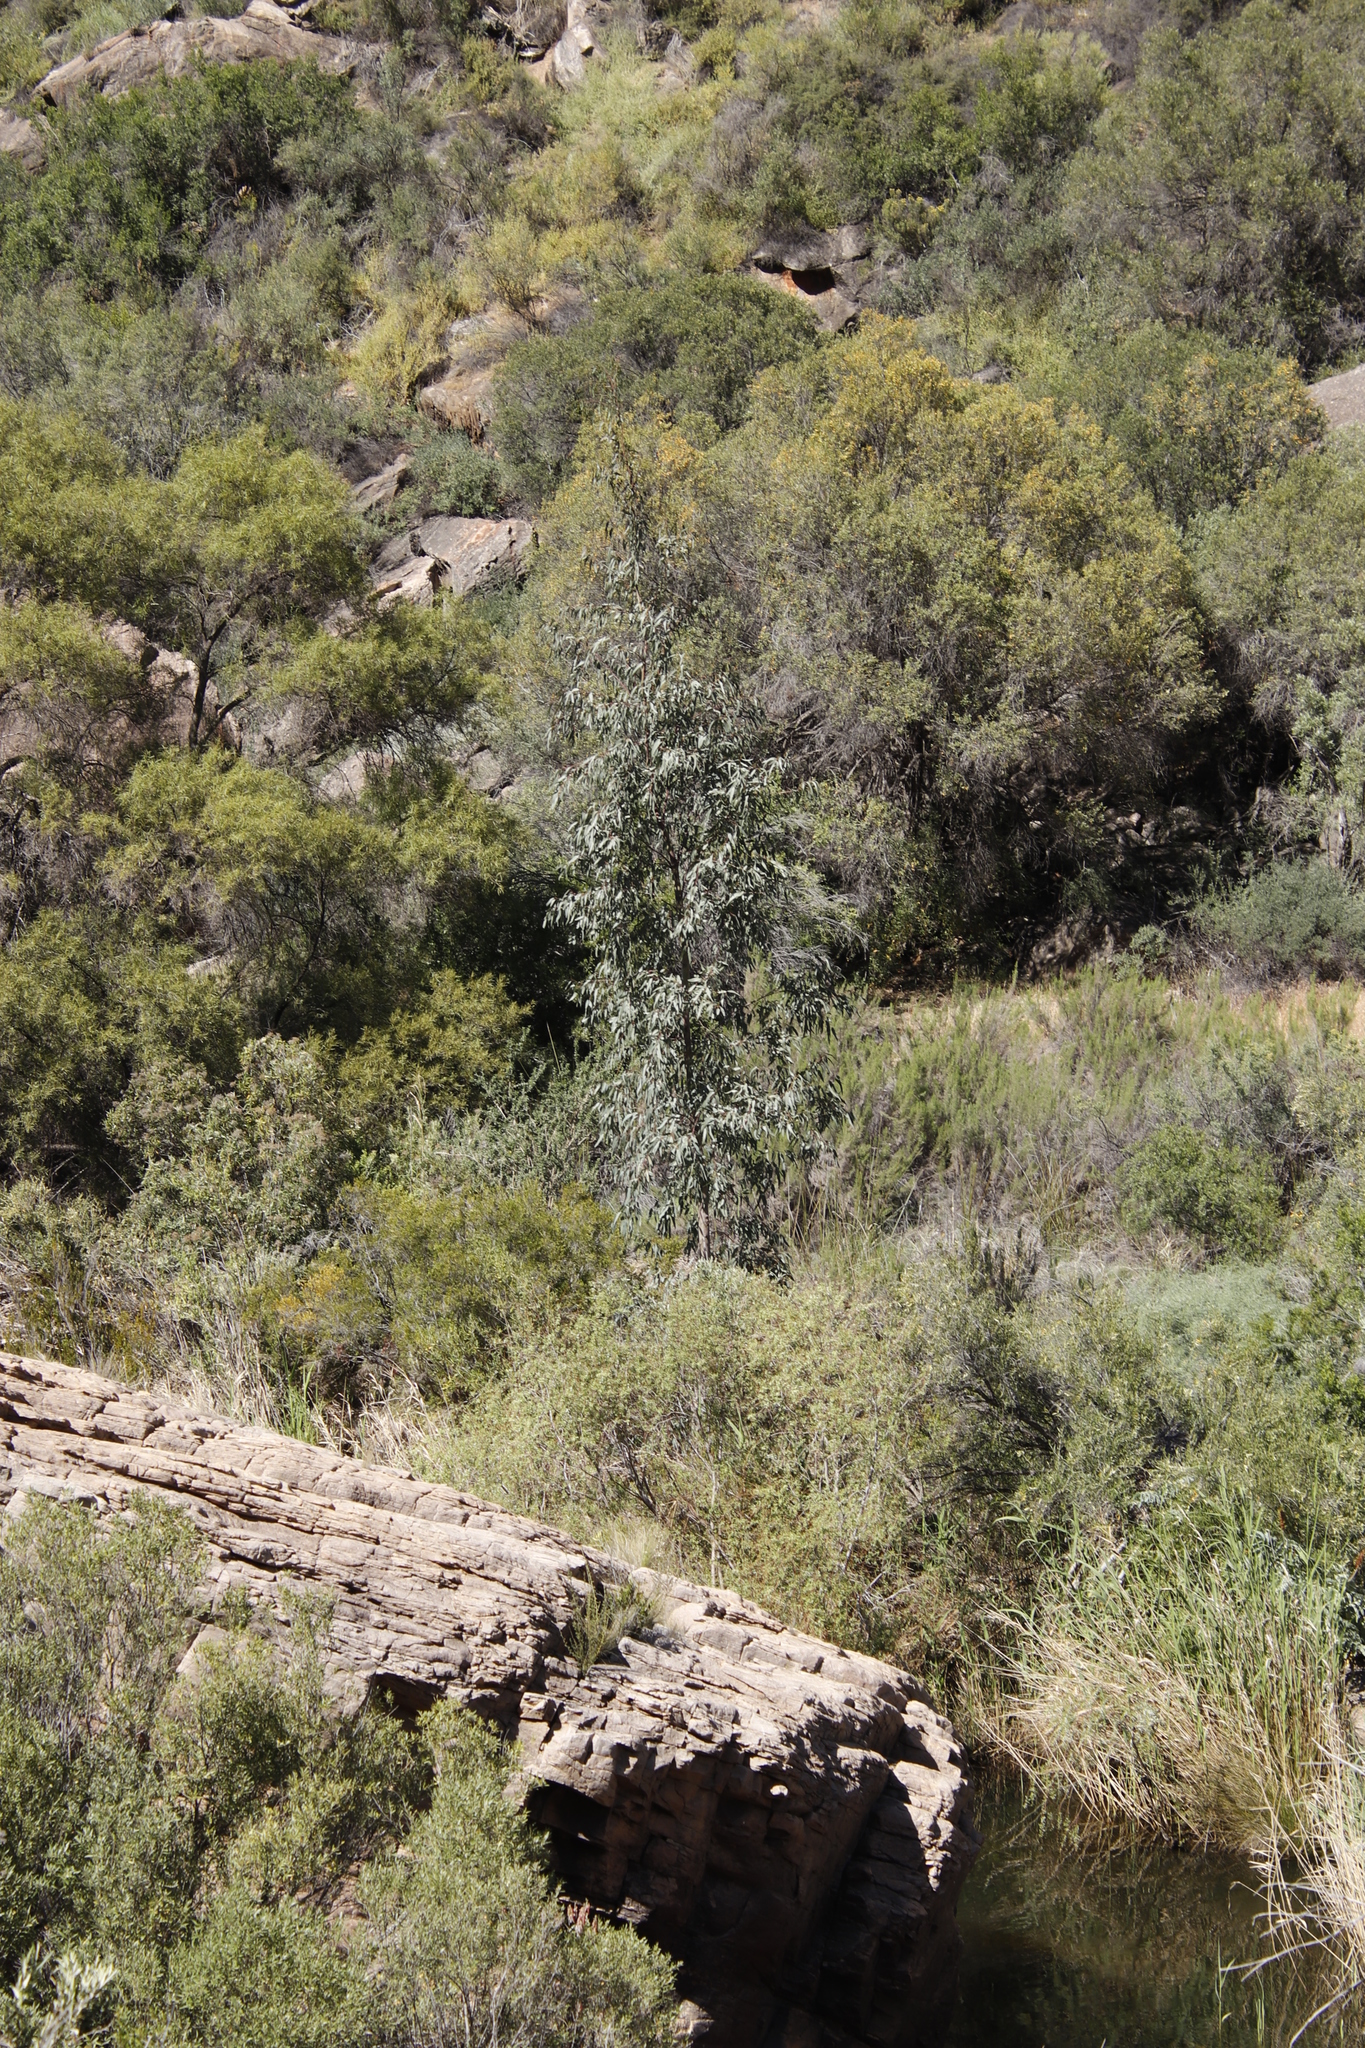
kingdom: Plantae
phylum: Tracheophyta
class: Magnoliopsida
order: Myrtales
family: Myrtaceae
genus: Eucalyptus
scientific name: Eucalyptus camaldulensis
